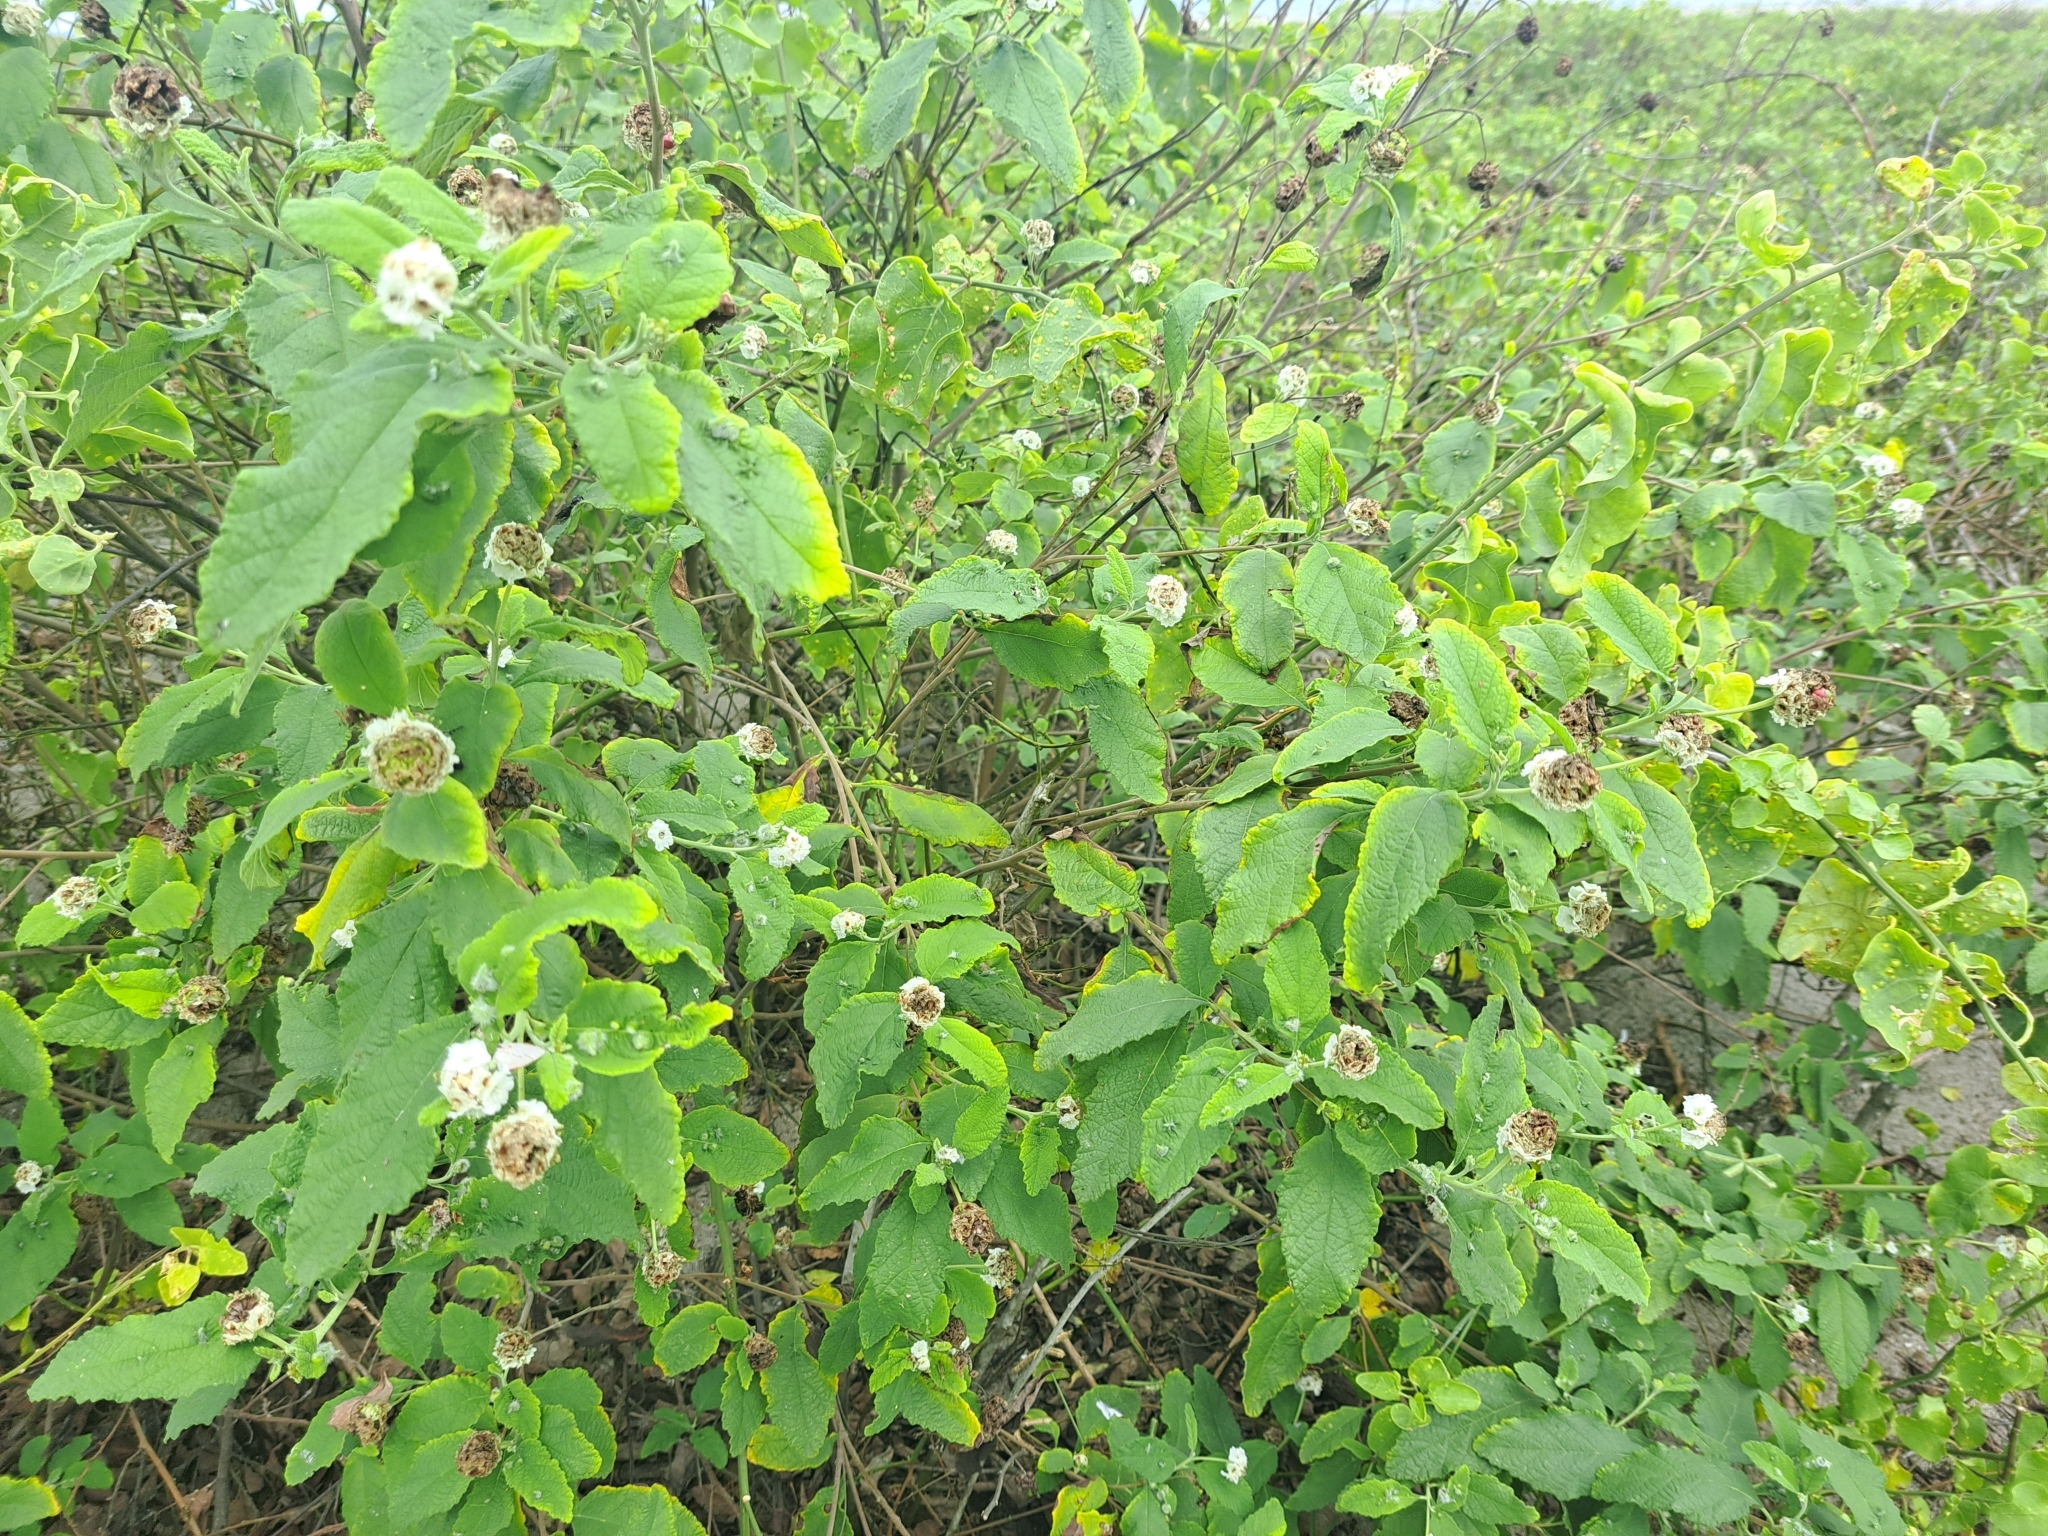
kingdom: Plantae
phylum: Tracheophyta
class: Magnoliopsida
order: Boraginales
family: Cordiaceae
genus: Varronia
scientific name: Varronia macrocephala
